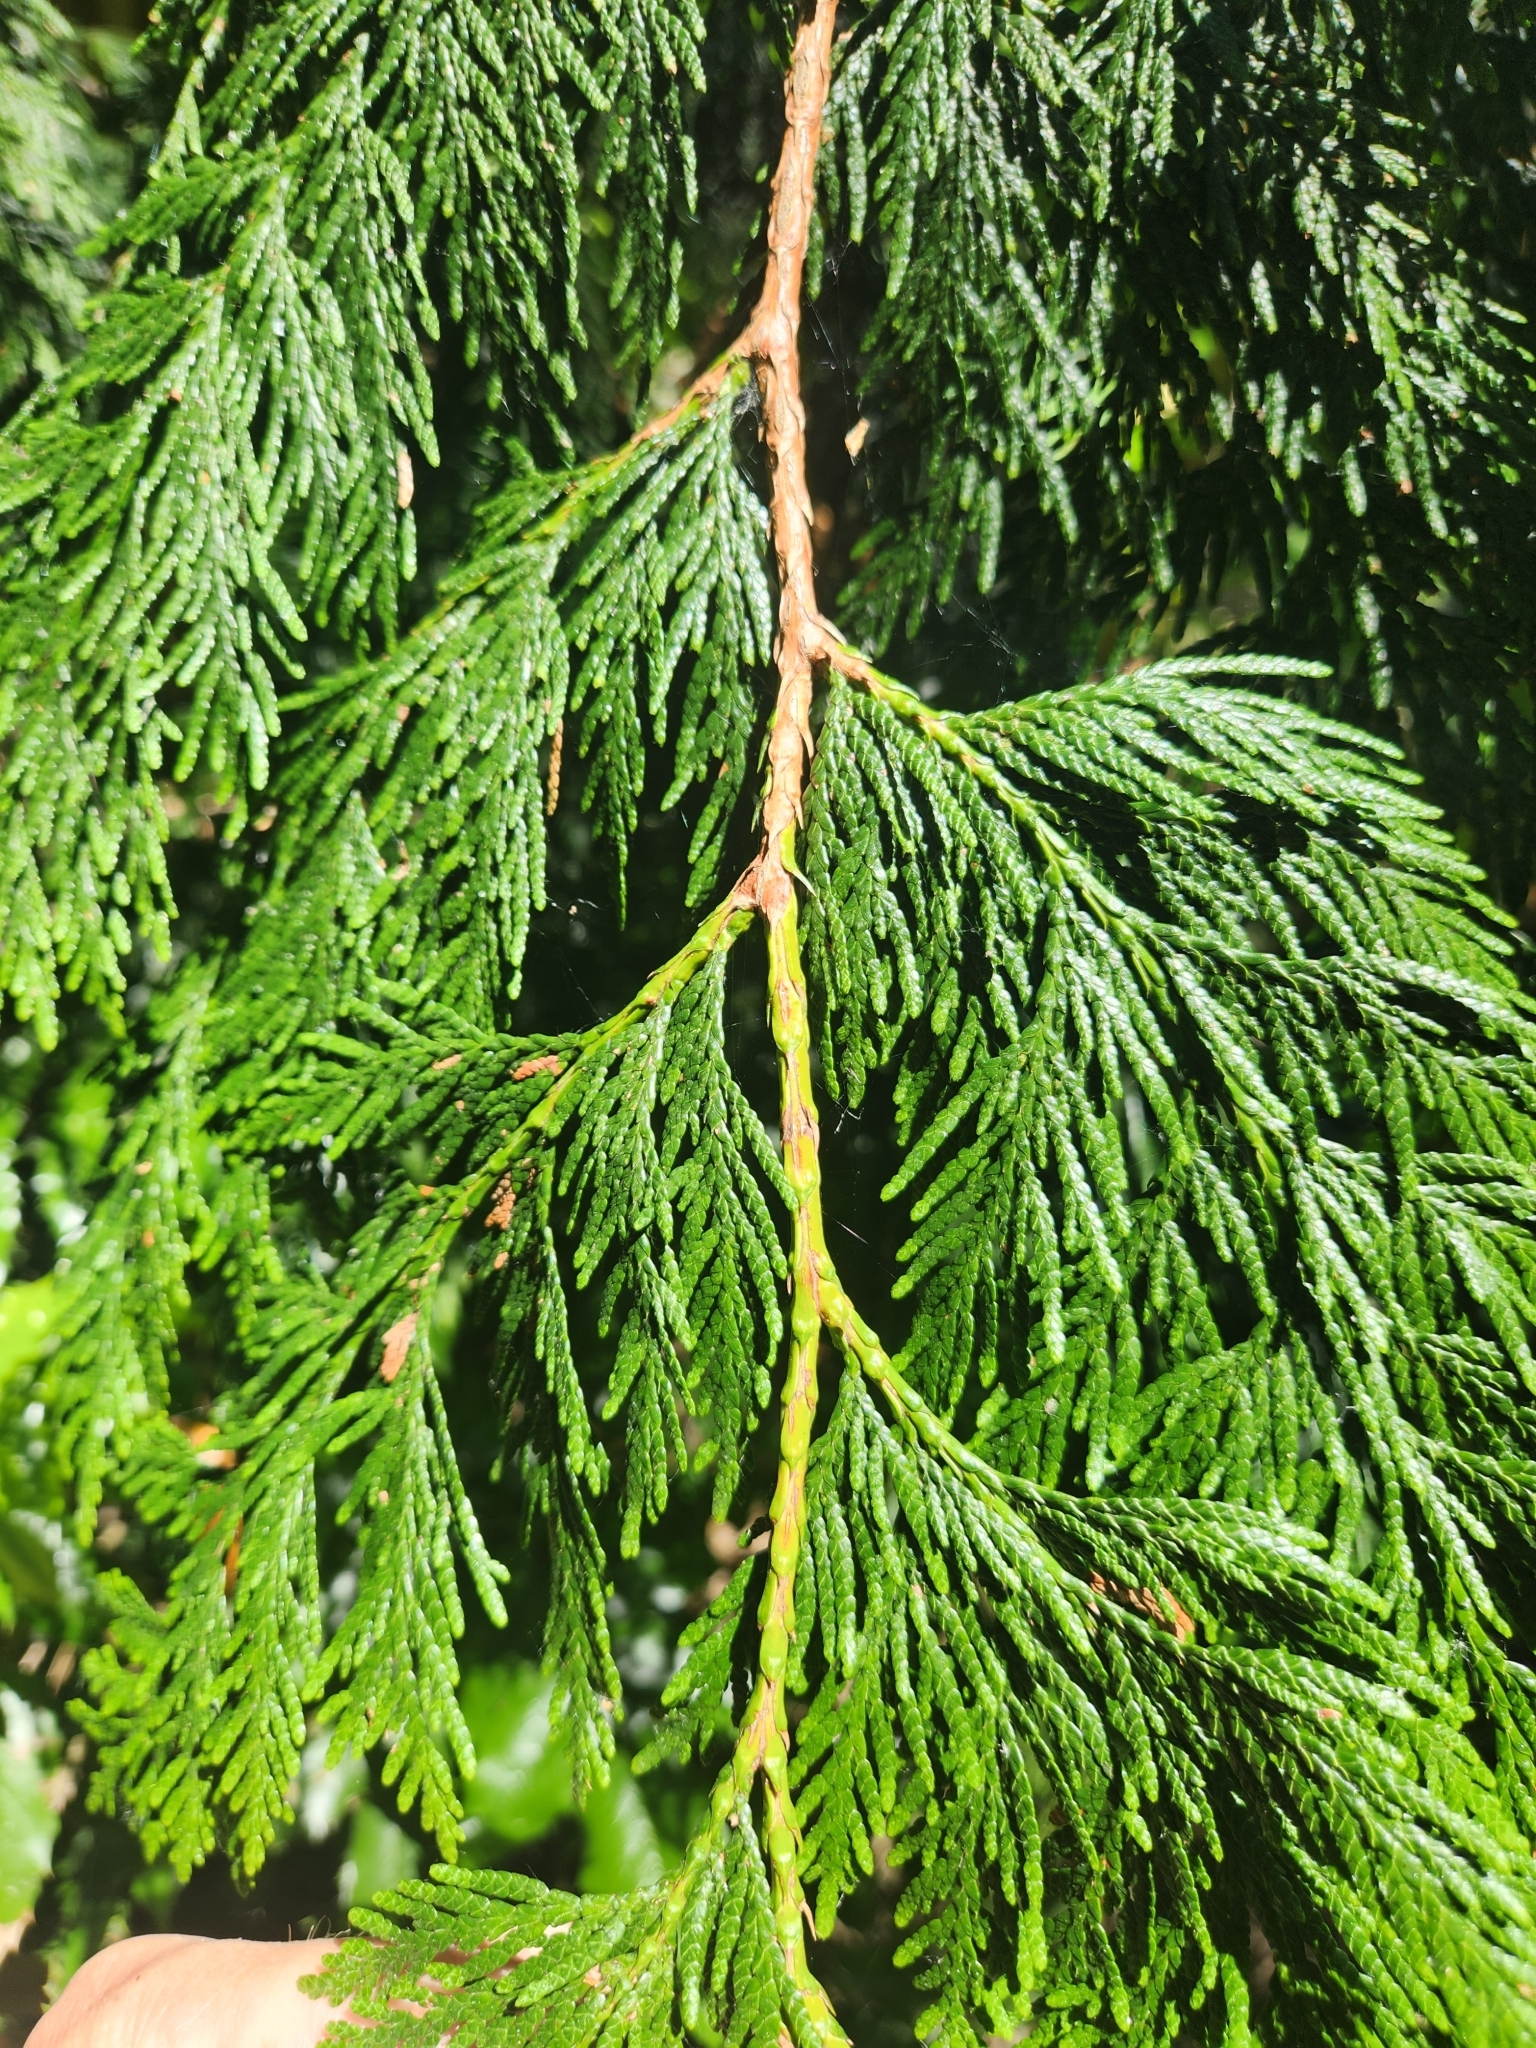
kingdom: Plantae
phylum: Tracheophyta
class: Pinopsida
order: Pinales
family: Cupressaceae
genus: Thuja
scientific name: Thuja plicata
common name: Western red-cedar
